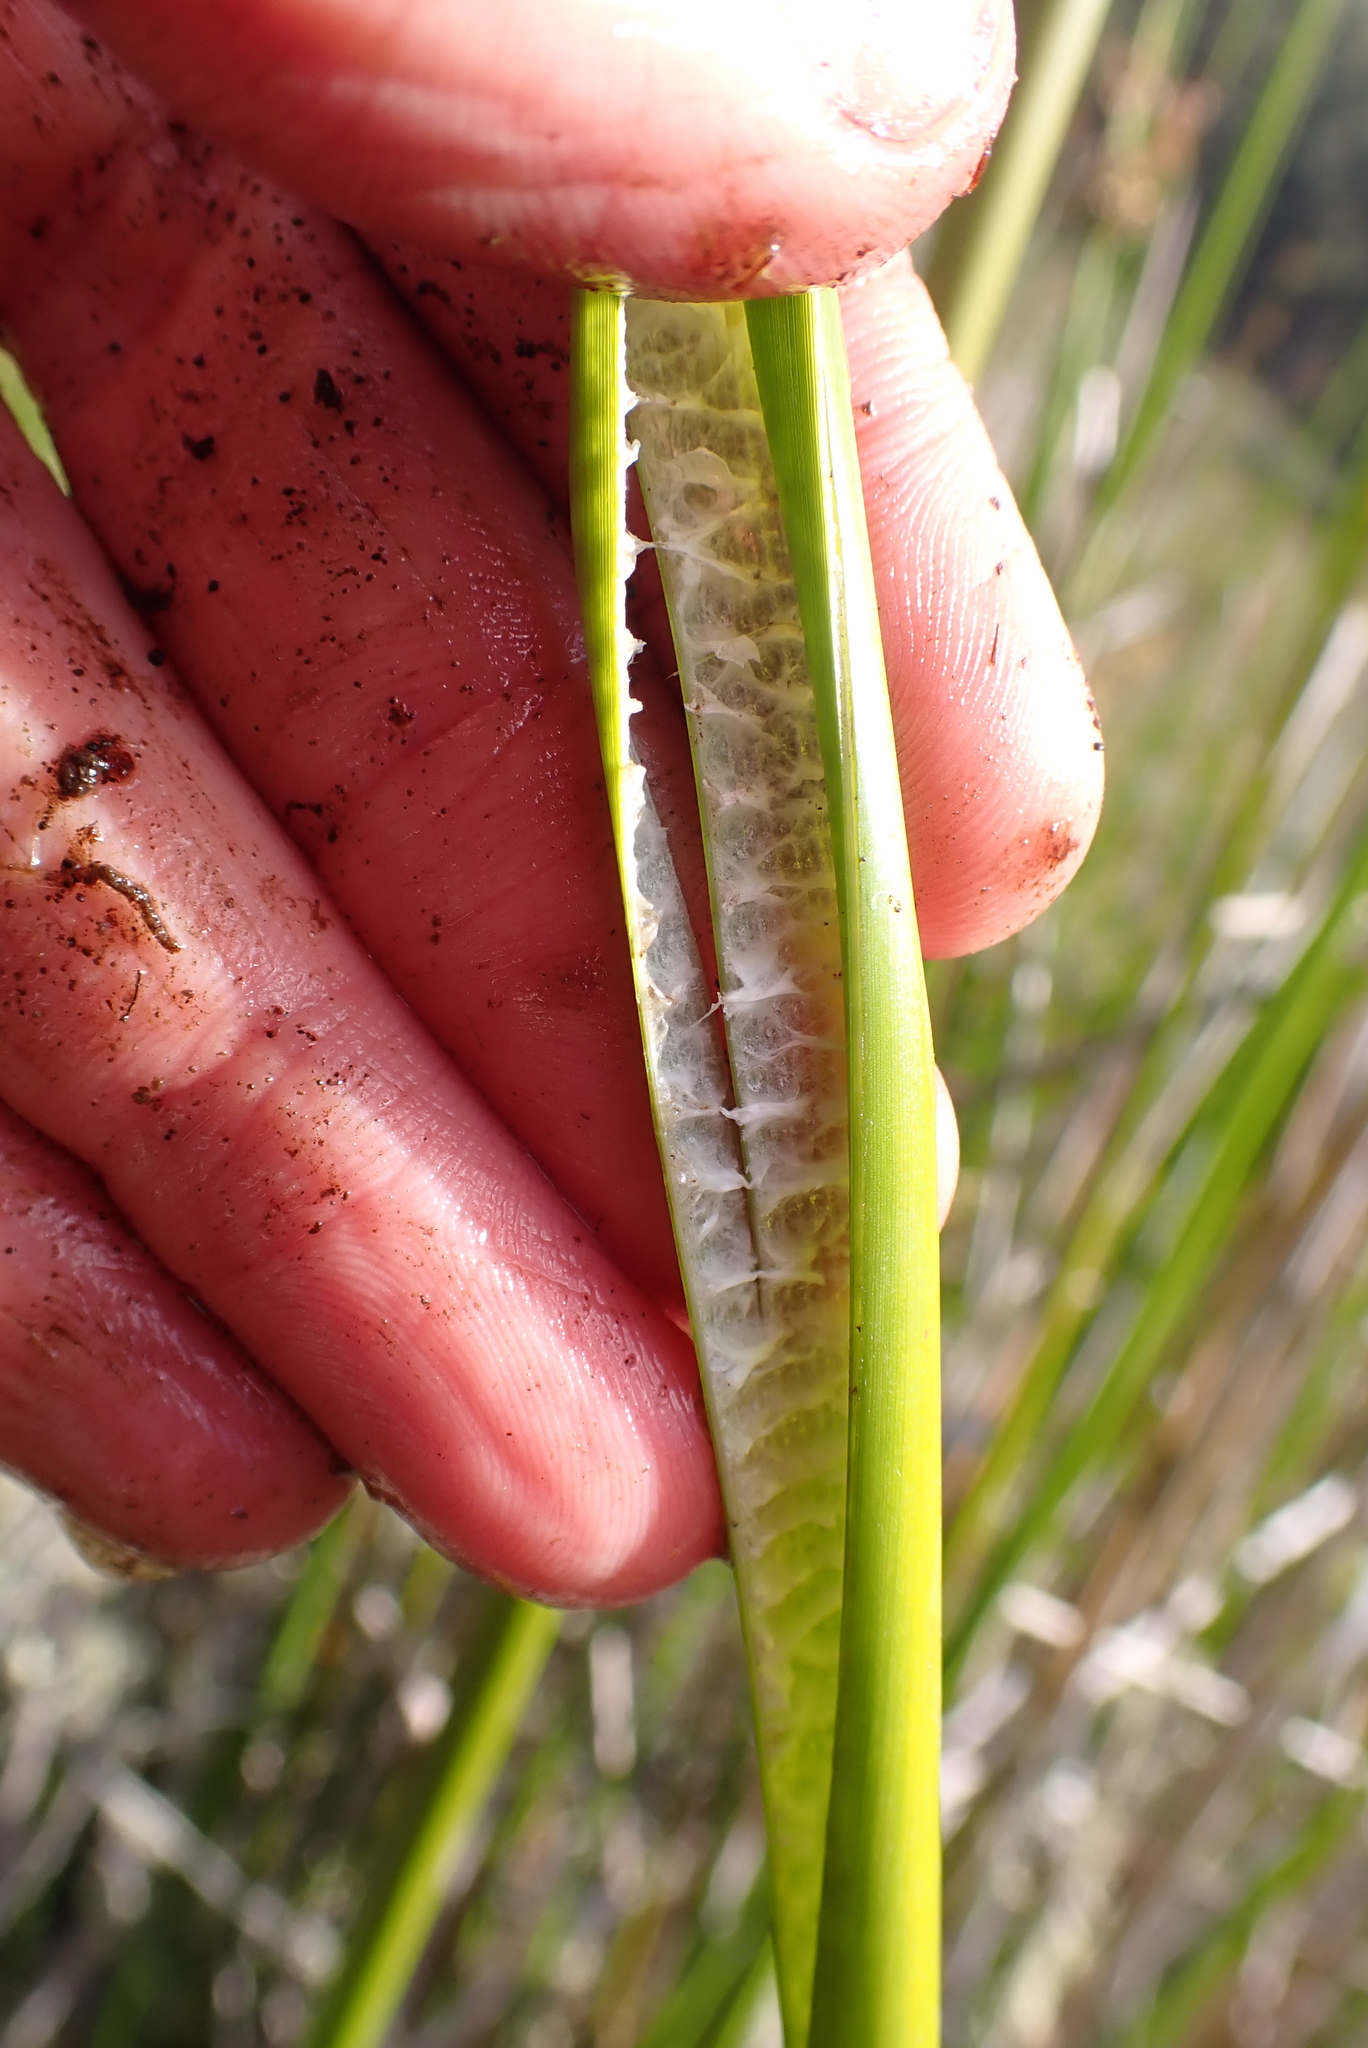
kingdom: Plantae
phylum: Tracheophyta
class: Liliopsida
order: Poales
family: Juncaceae
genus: Juncus
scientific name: Juncus procerus
